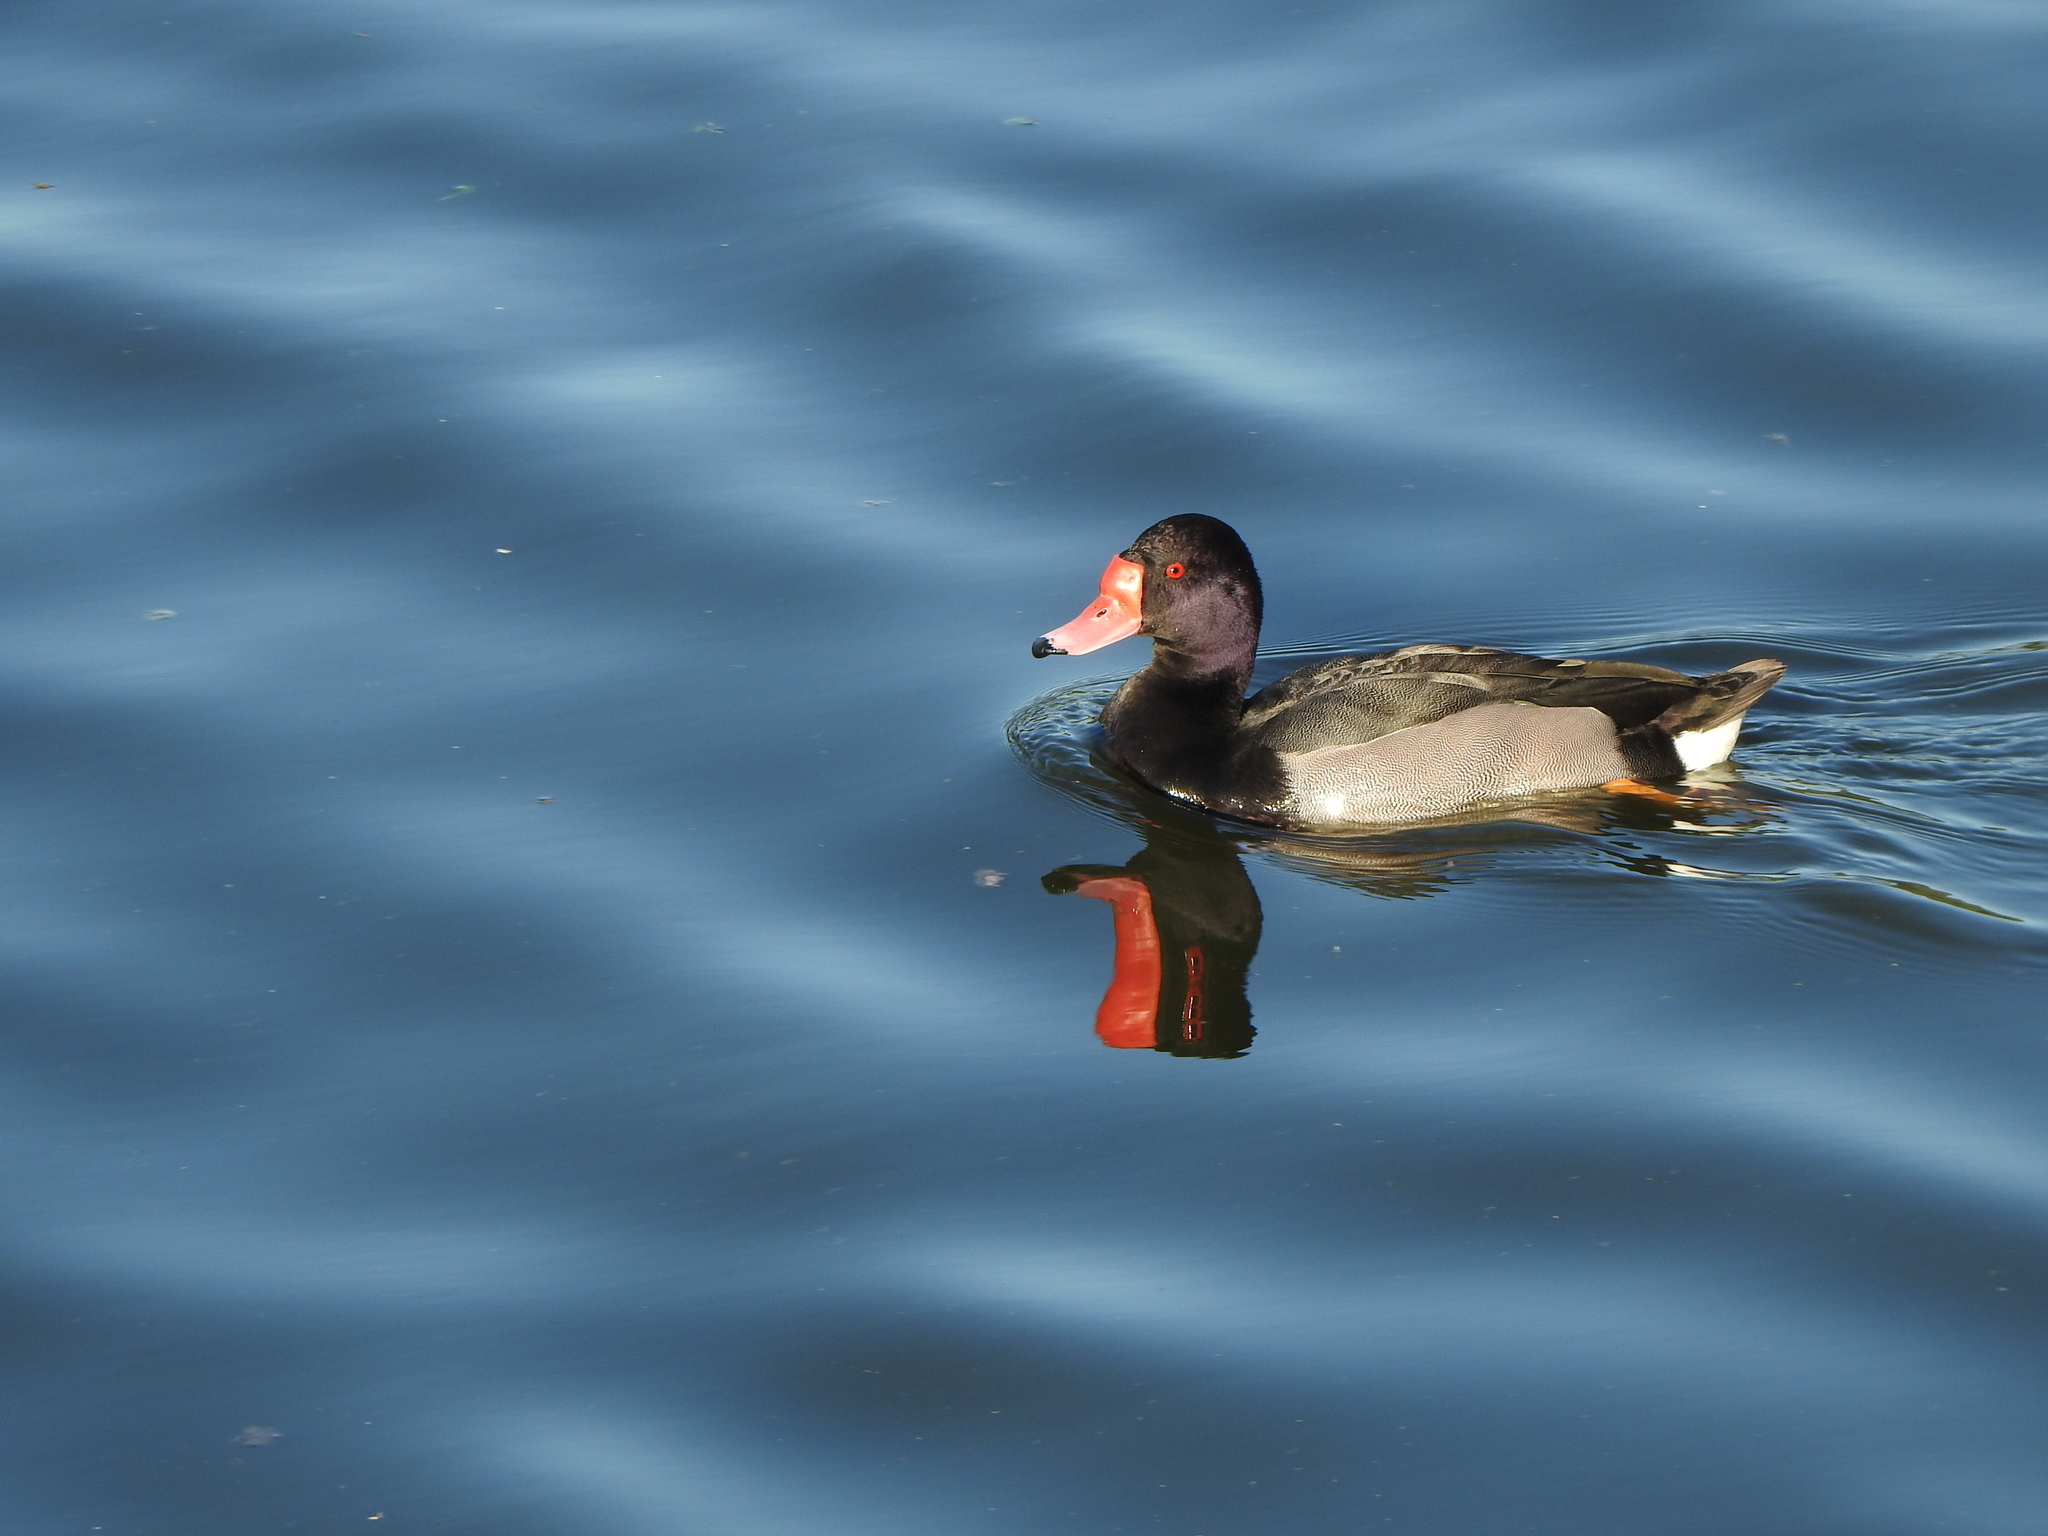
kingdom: Animalia
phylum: Chordata
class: Aves
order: Anseriformes
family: Anatidae
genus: Netta
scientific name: Netta peposaca
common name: Rosy-billed pochard
